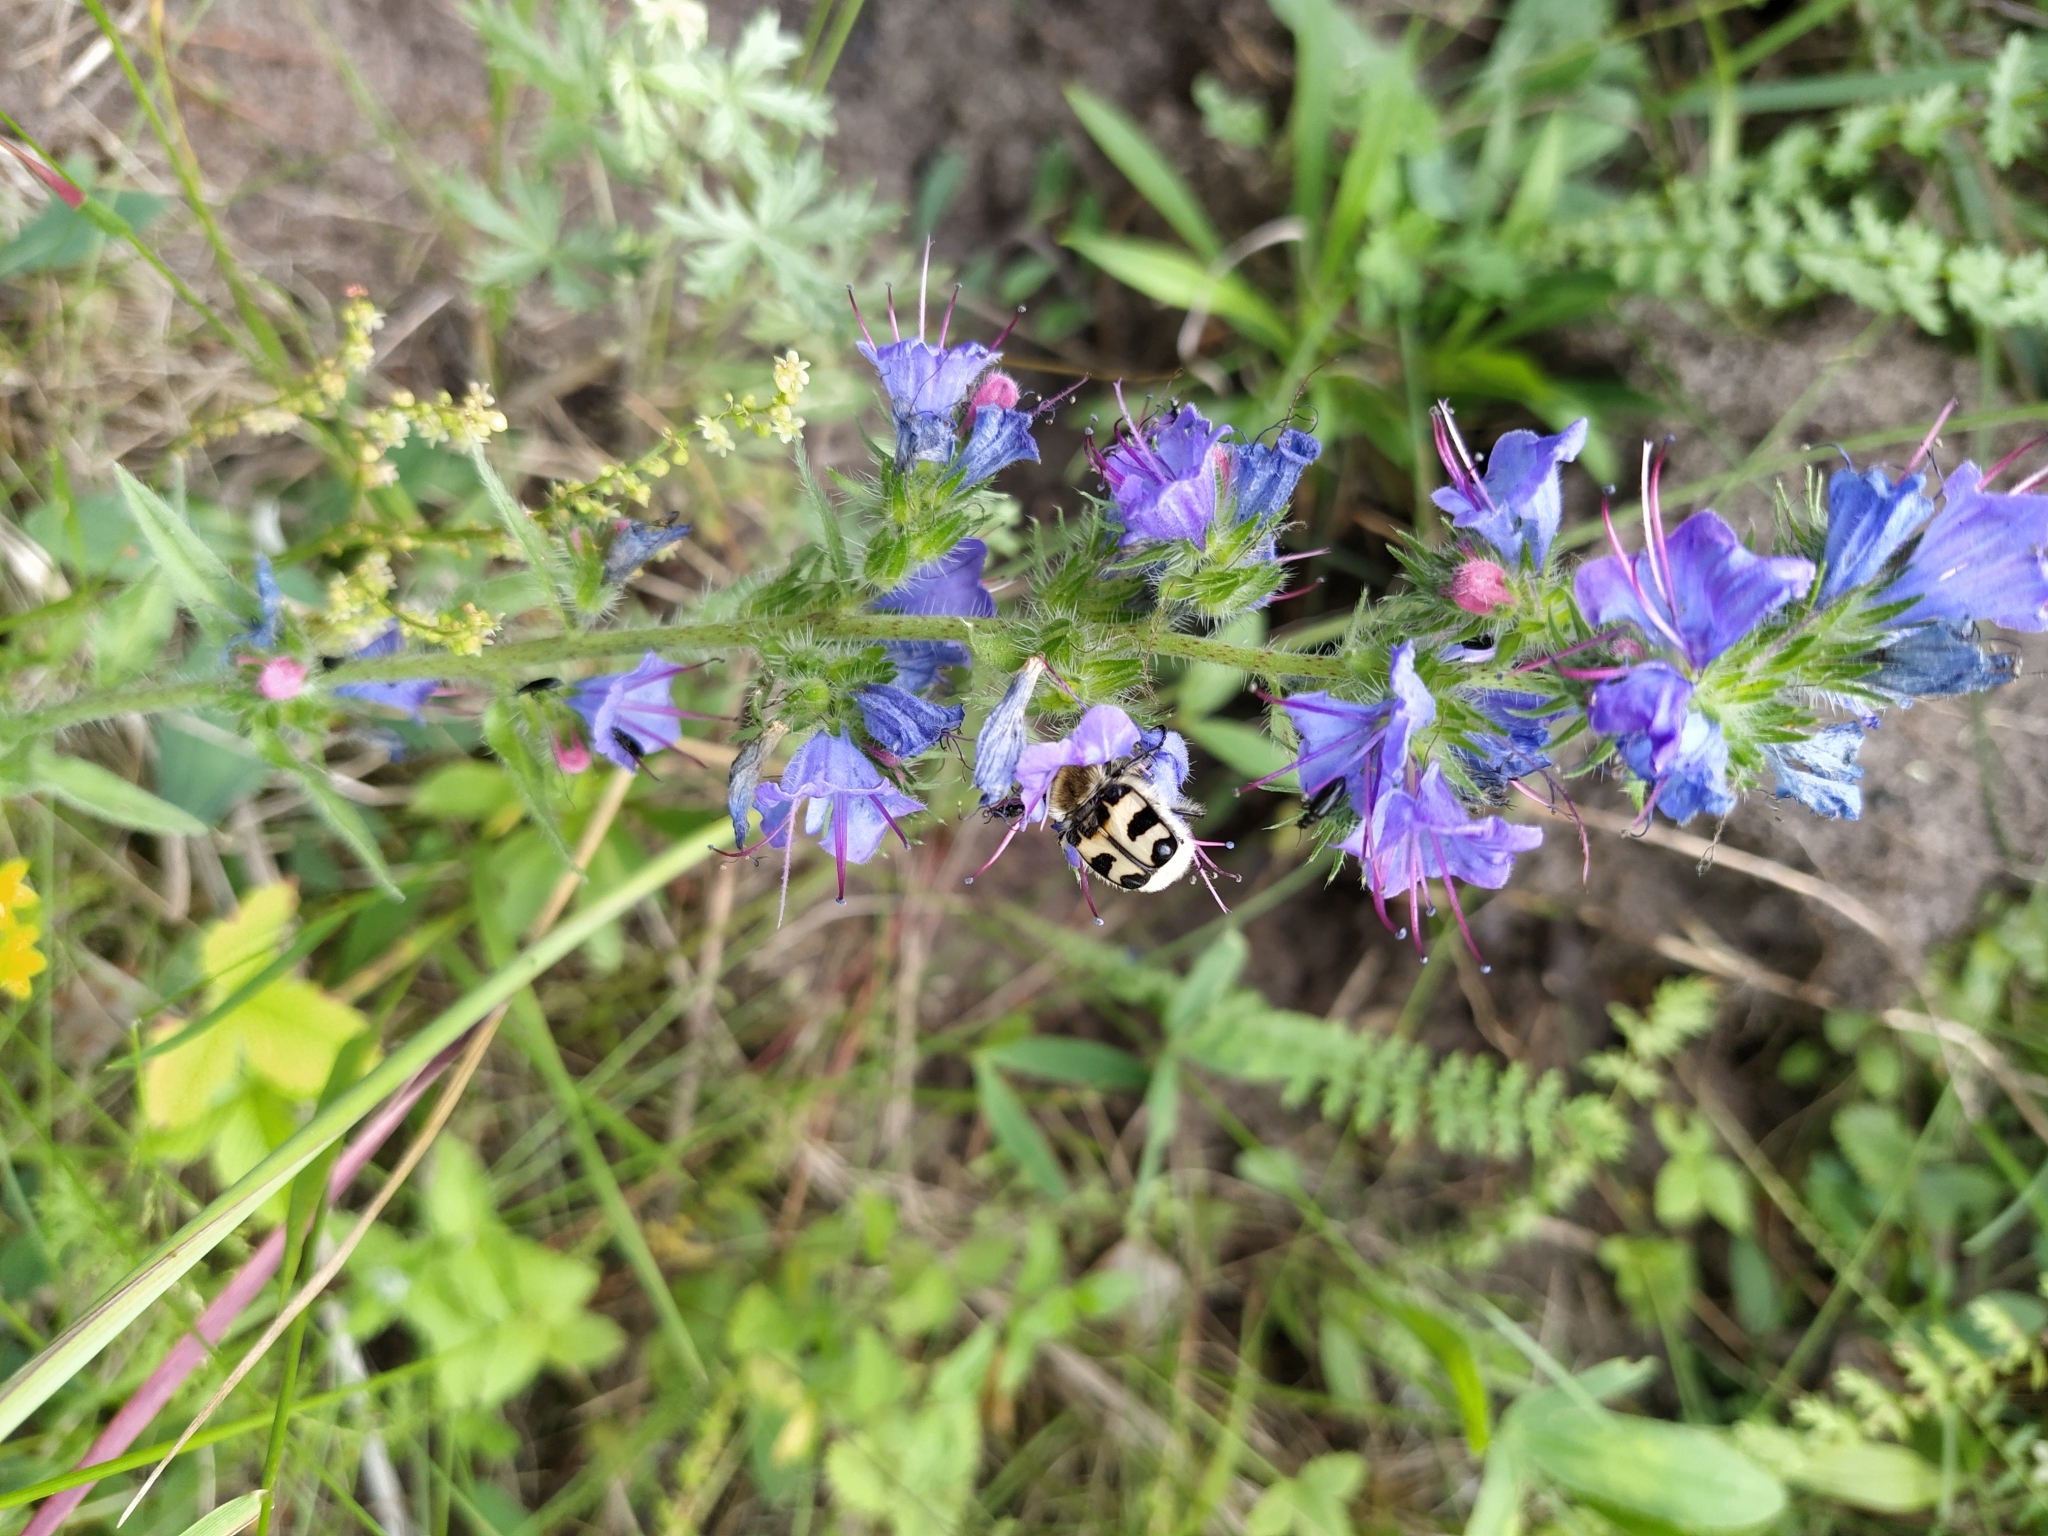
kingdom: Plantae
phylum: Tracheophyta
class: Magnoliopsida
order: Boraginales
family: Boraginaceae
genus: Echium
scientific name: Echium vulgare
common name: Common viper's bugloss
